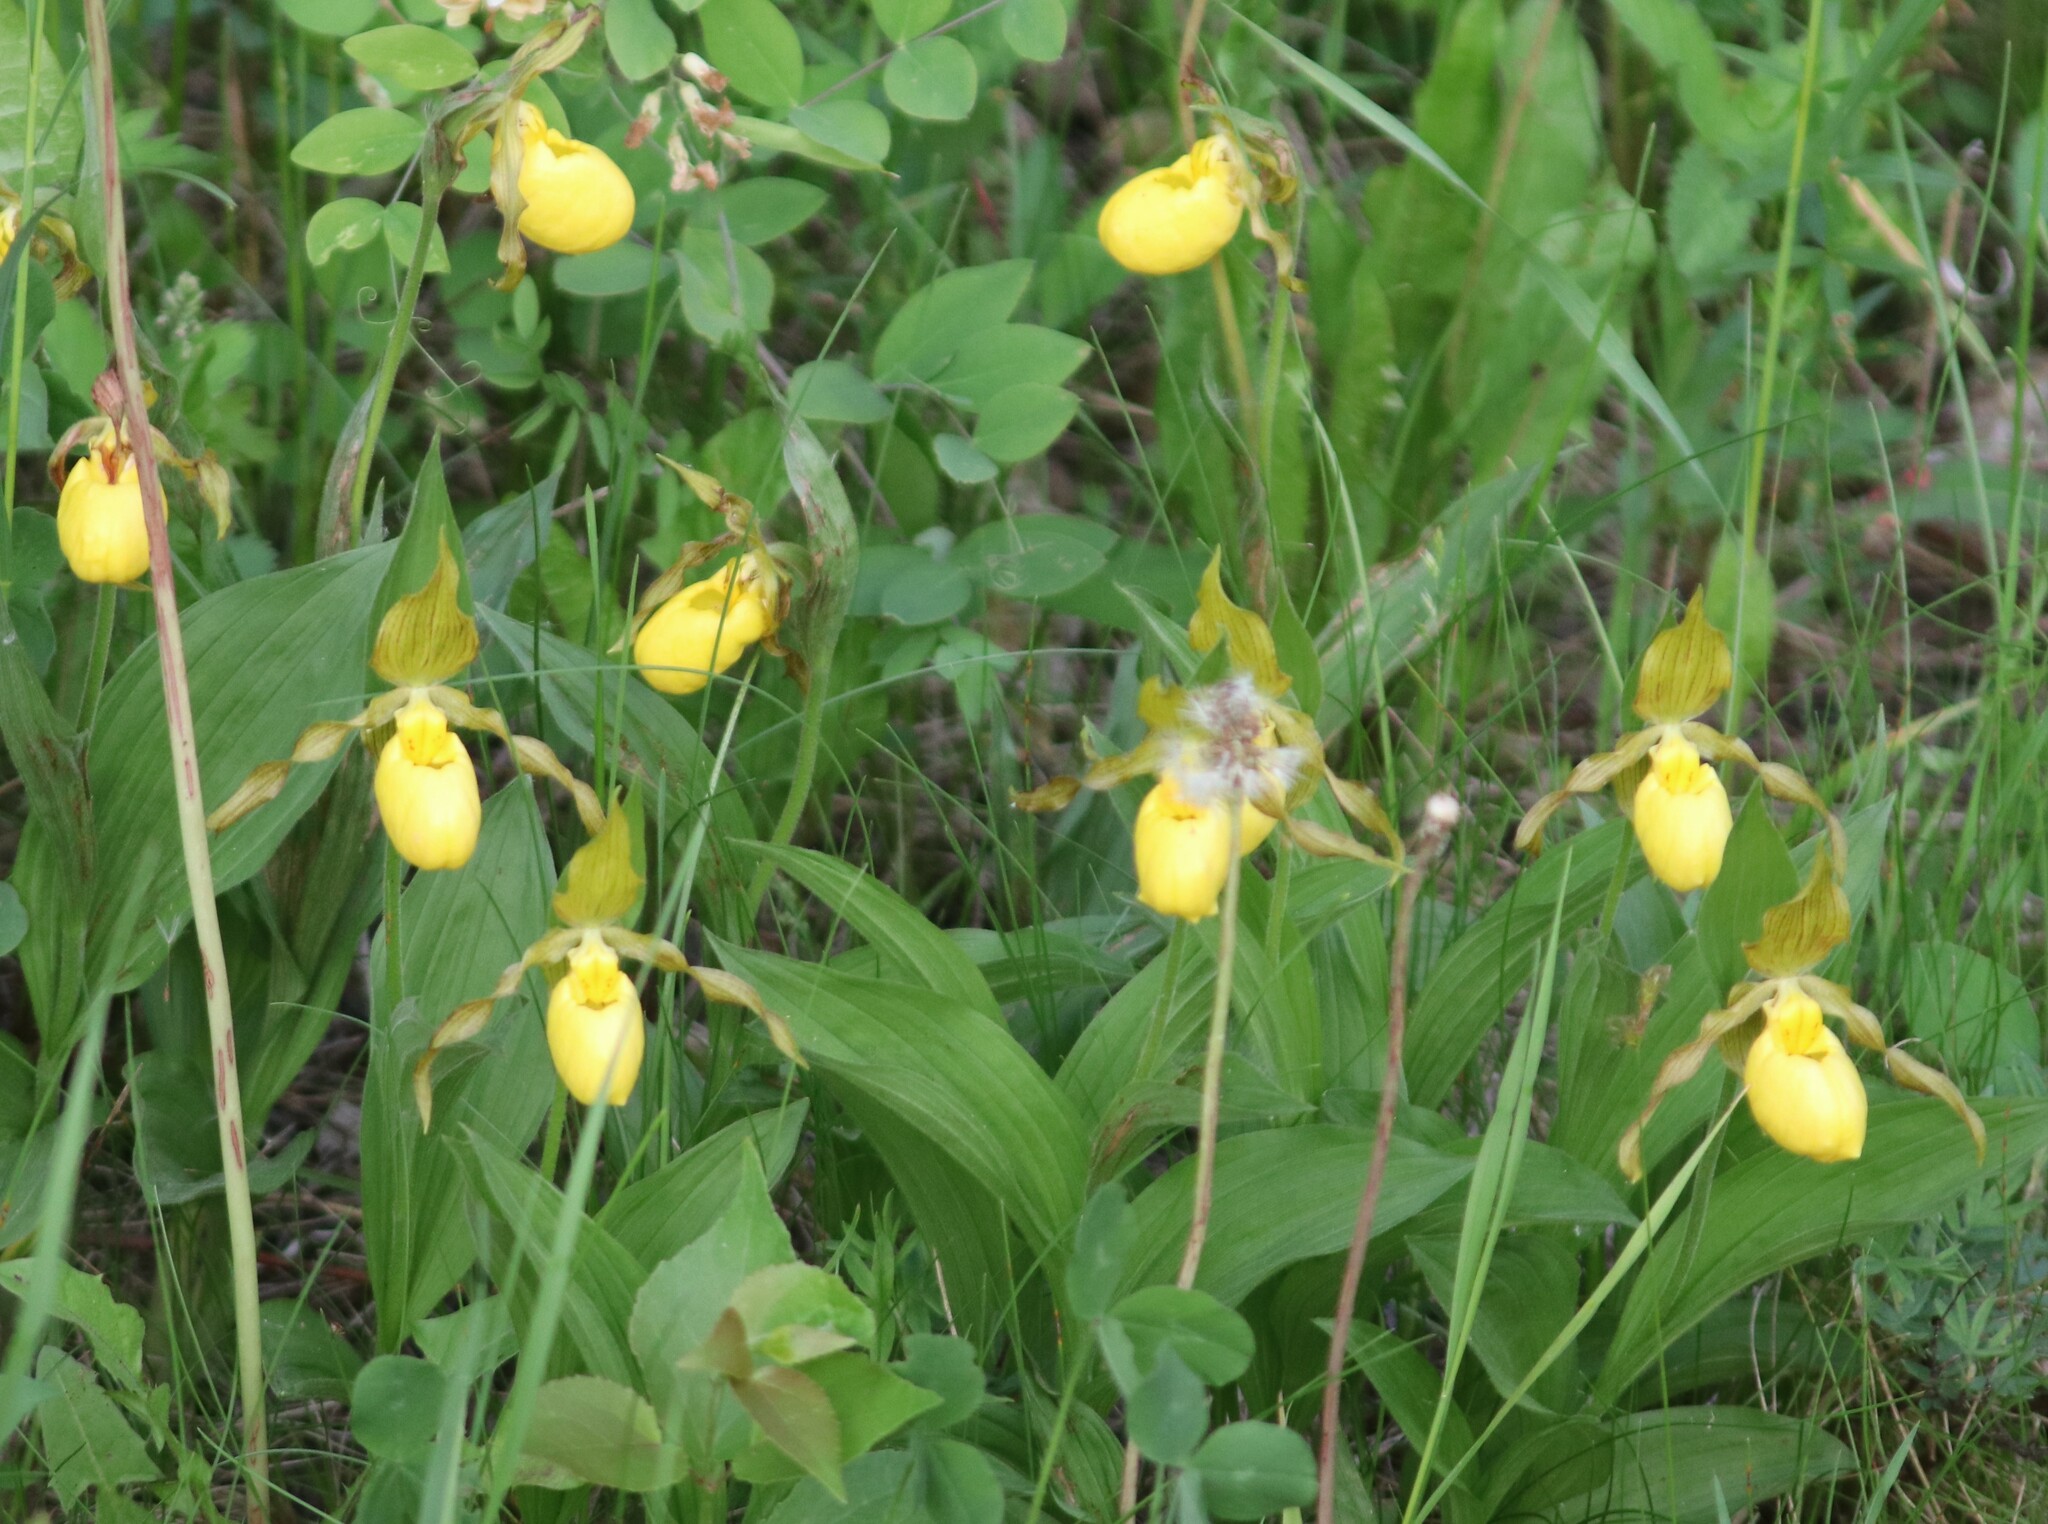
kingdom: Plantae
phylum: Tracheophyta
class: Liliopsida
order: Asparagales
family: Orchidaceae
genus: Cypripedium
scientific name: Cypripedium parviflorum
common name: American yellow lady's-slipper
